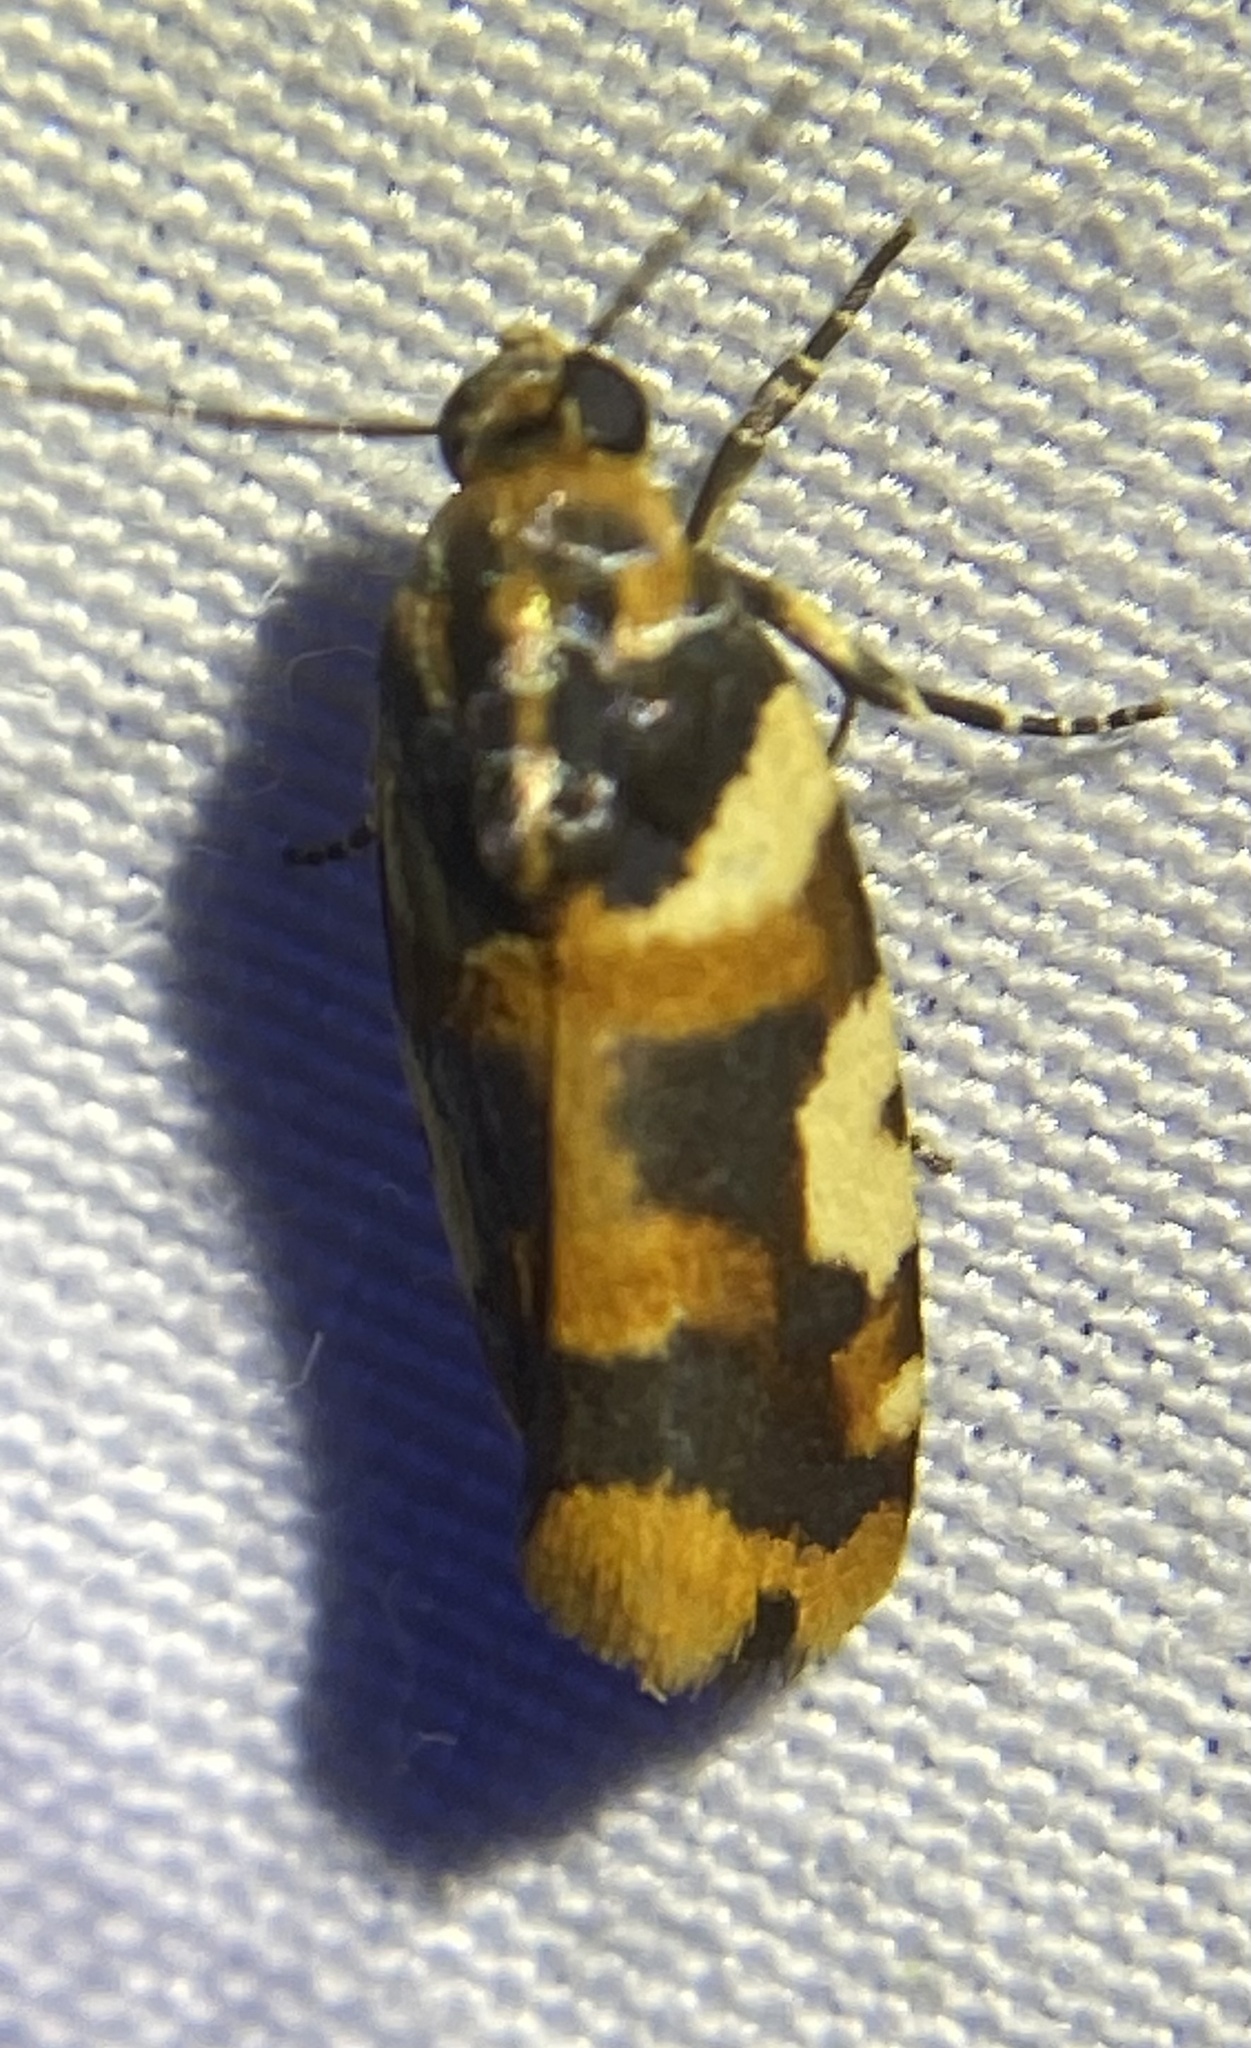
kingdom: Animalia
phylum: Arthropoda
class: Insecta
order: Lepidoptera
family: Noctuidae
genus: Acontia
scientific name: Acontia dama
